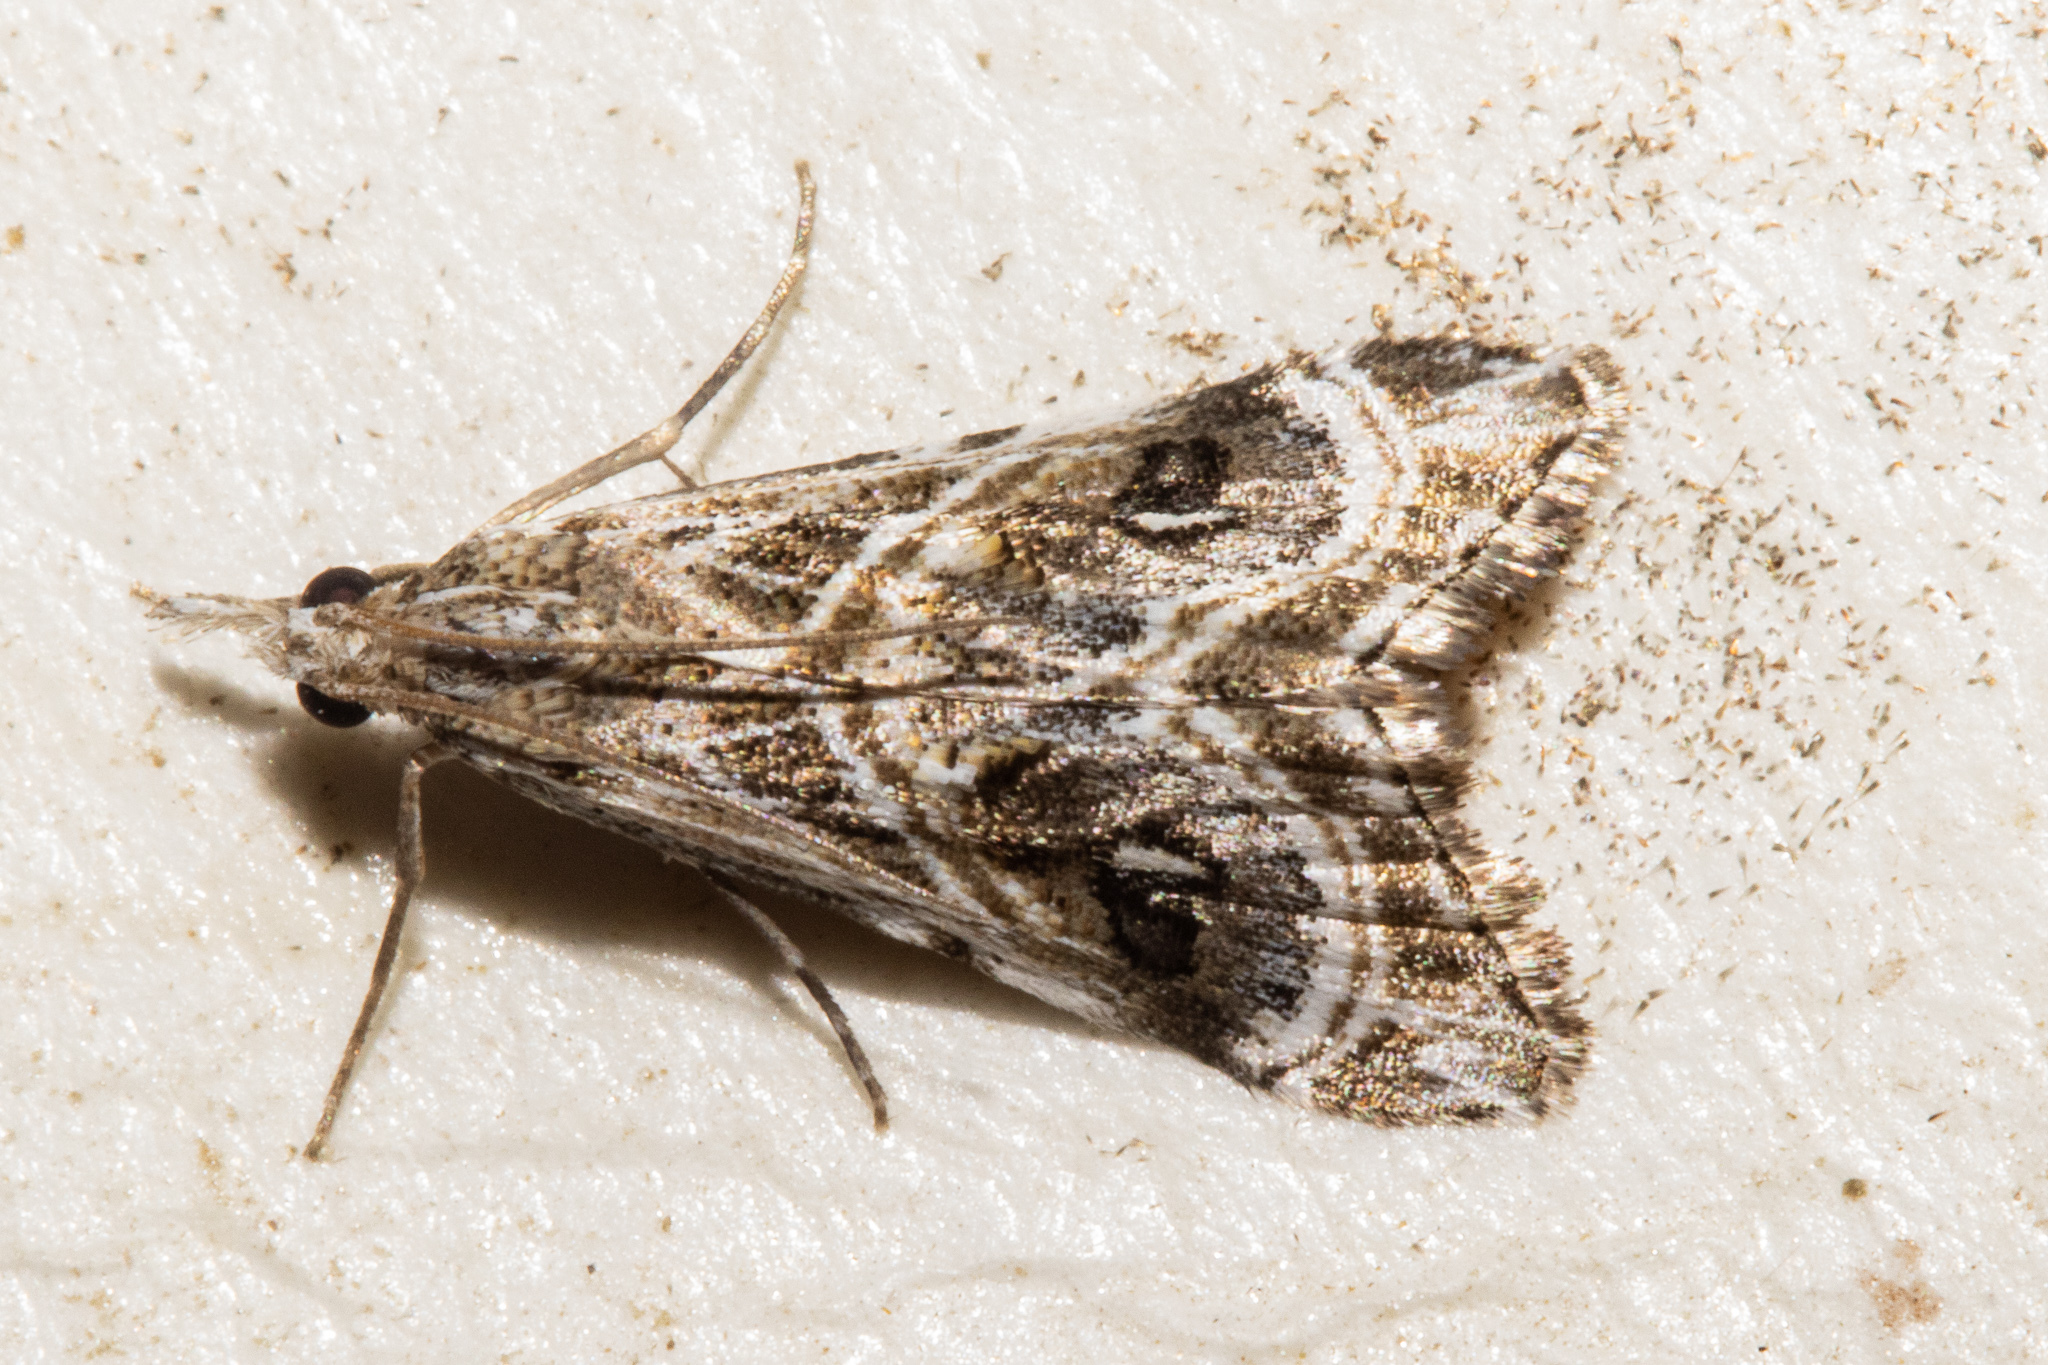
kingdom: Animalia
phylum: Arthropoda
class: Insecta
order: Lepidoptera
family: Crambidae
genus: Gadira
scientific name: Gadira acerella
